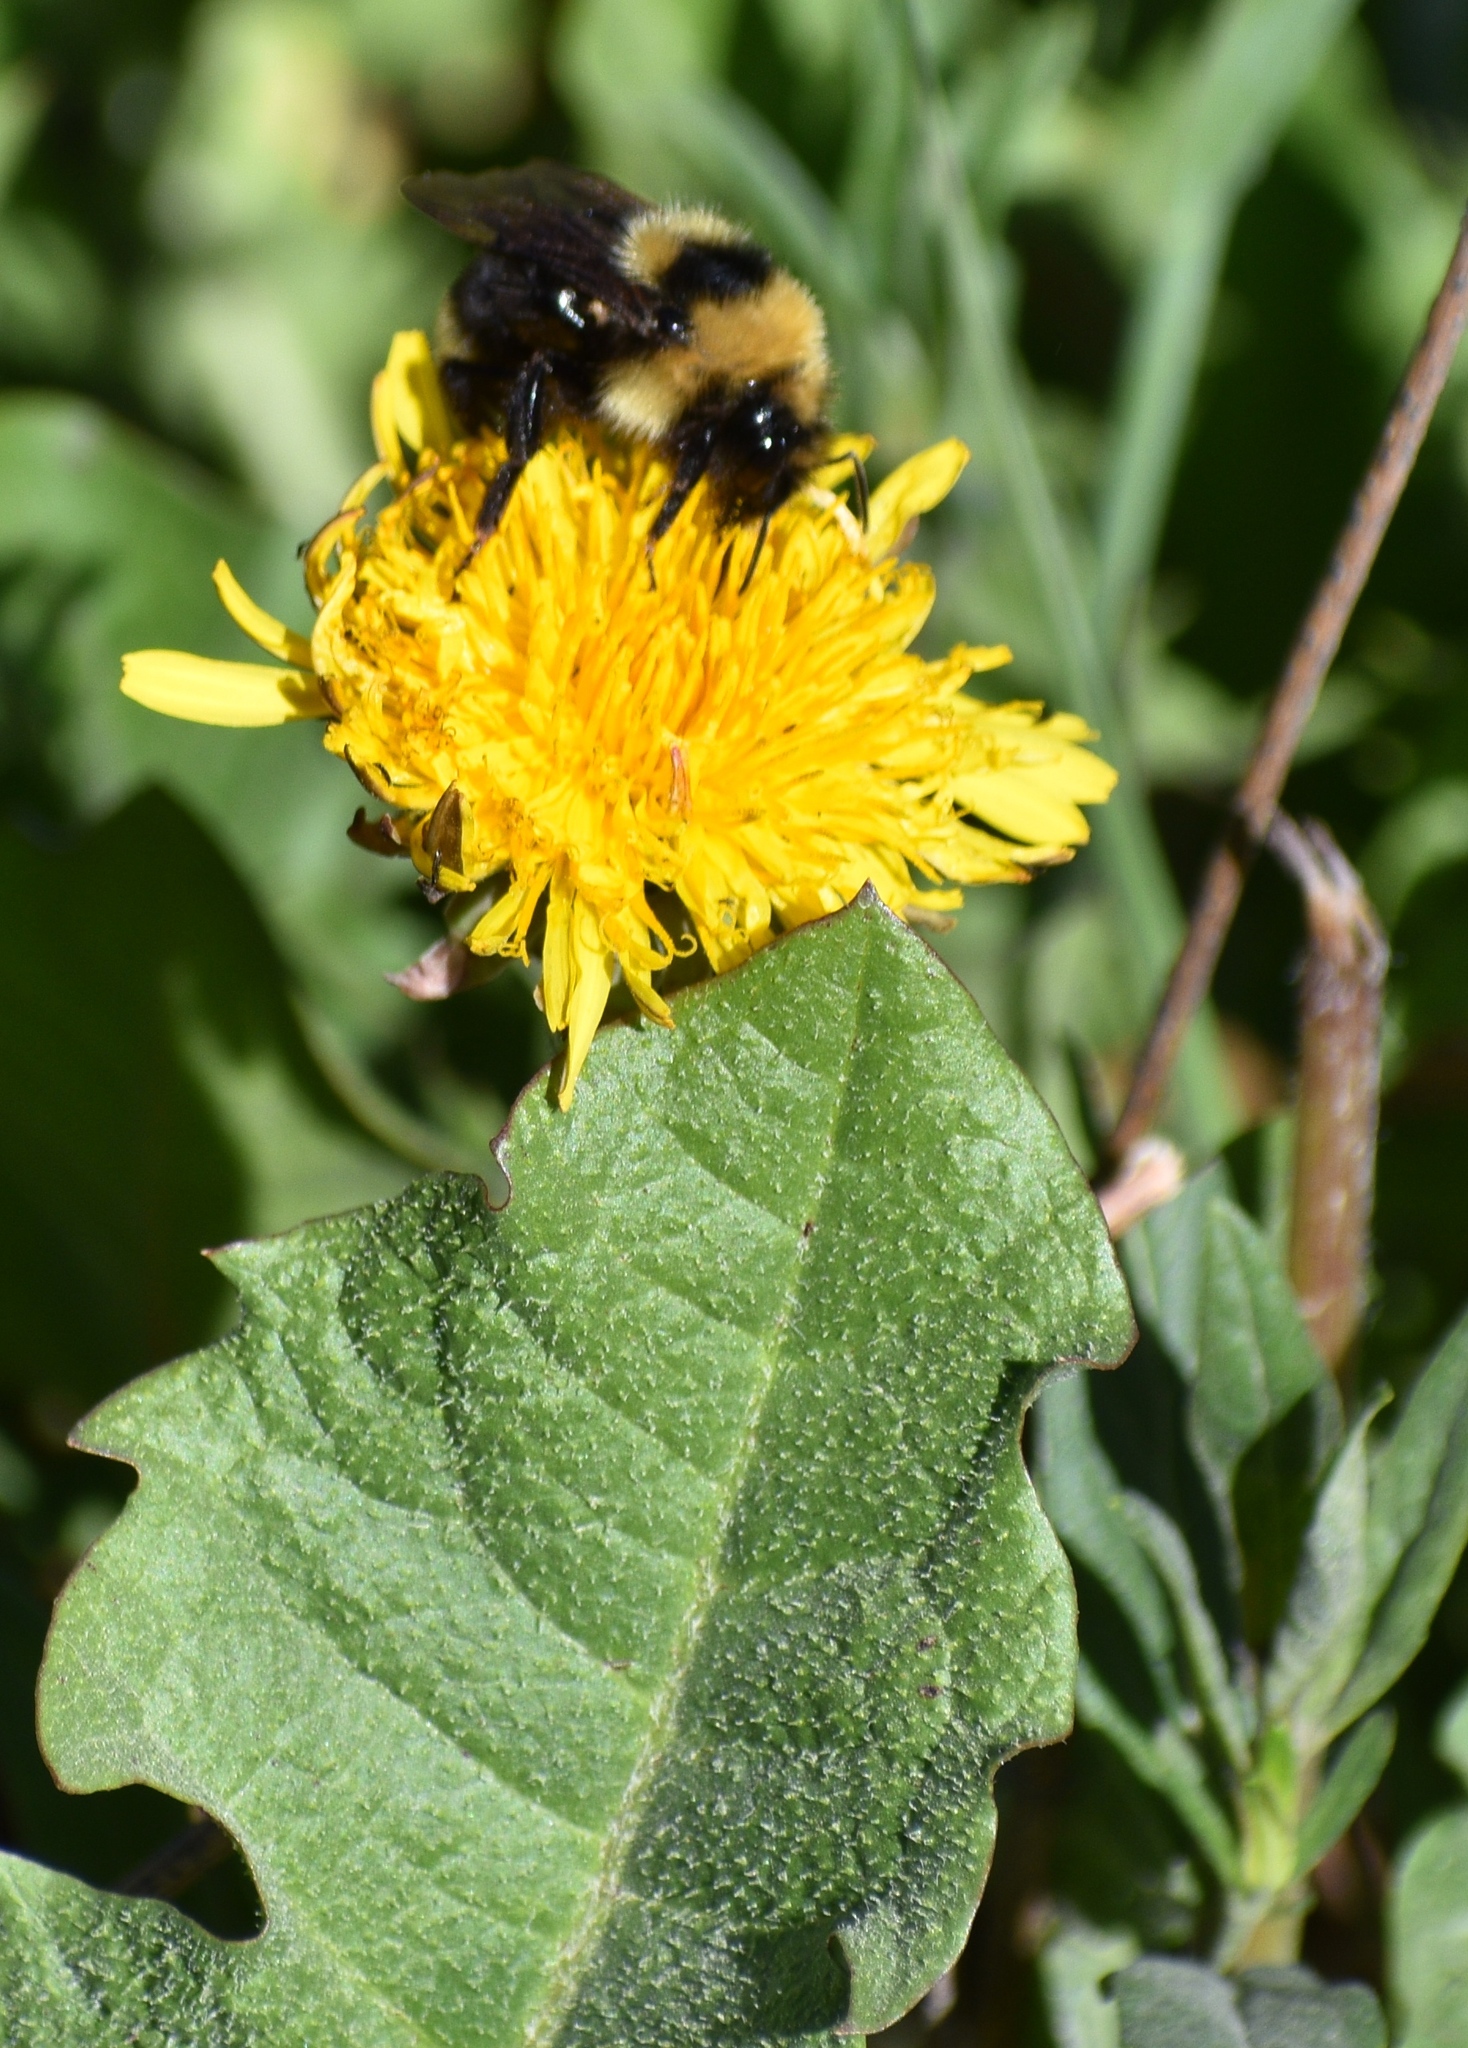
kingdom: Animalia
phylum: Arthropoda
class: Insecta
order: Hymenoptera
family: Apidae
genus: Bombus
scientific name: Bombus insularis
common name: Indiscriminate cuckoo bumble bee
